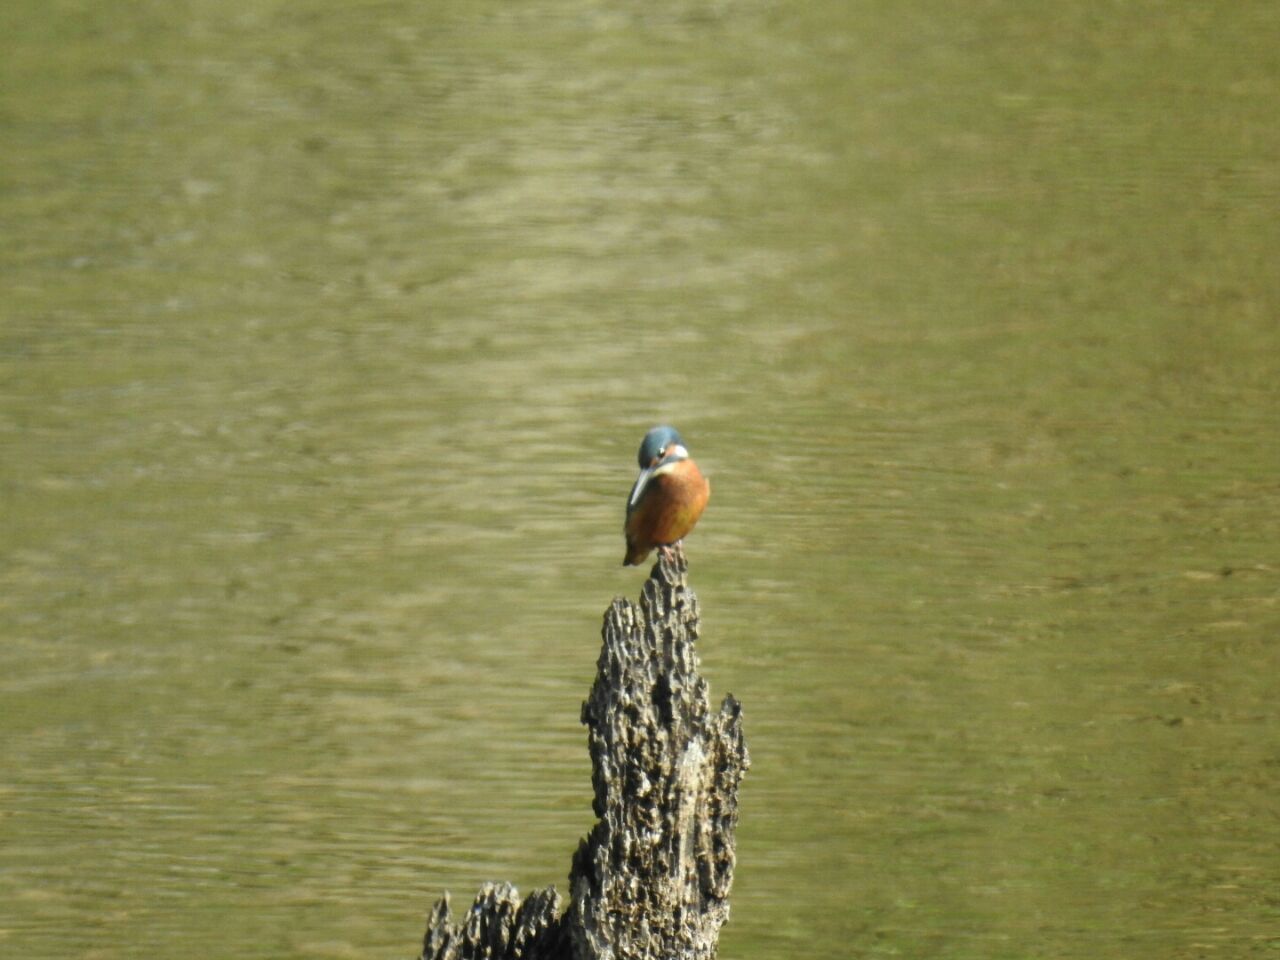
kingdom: Animalia
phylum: Chordata
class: Aves
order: Coraciiformes
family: Alcedinidae
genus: Alcedo
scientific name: Alcedo atthis
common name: Common kingfisher
